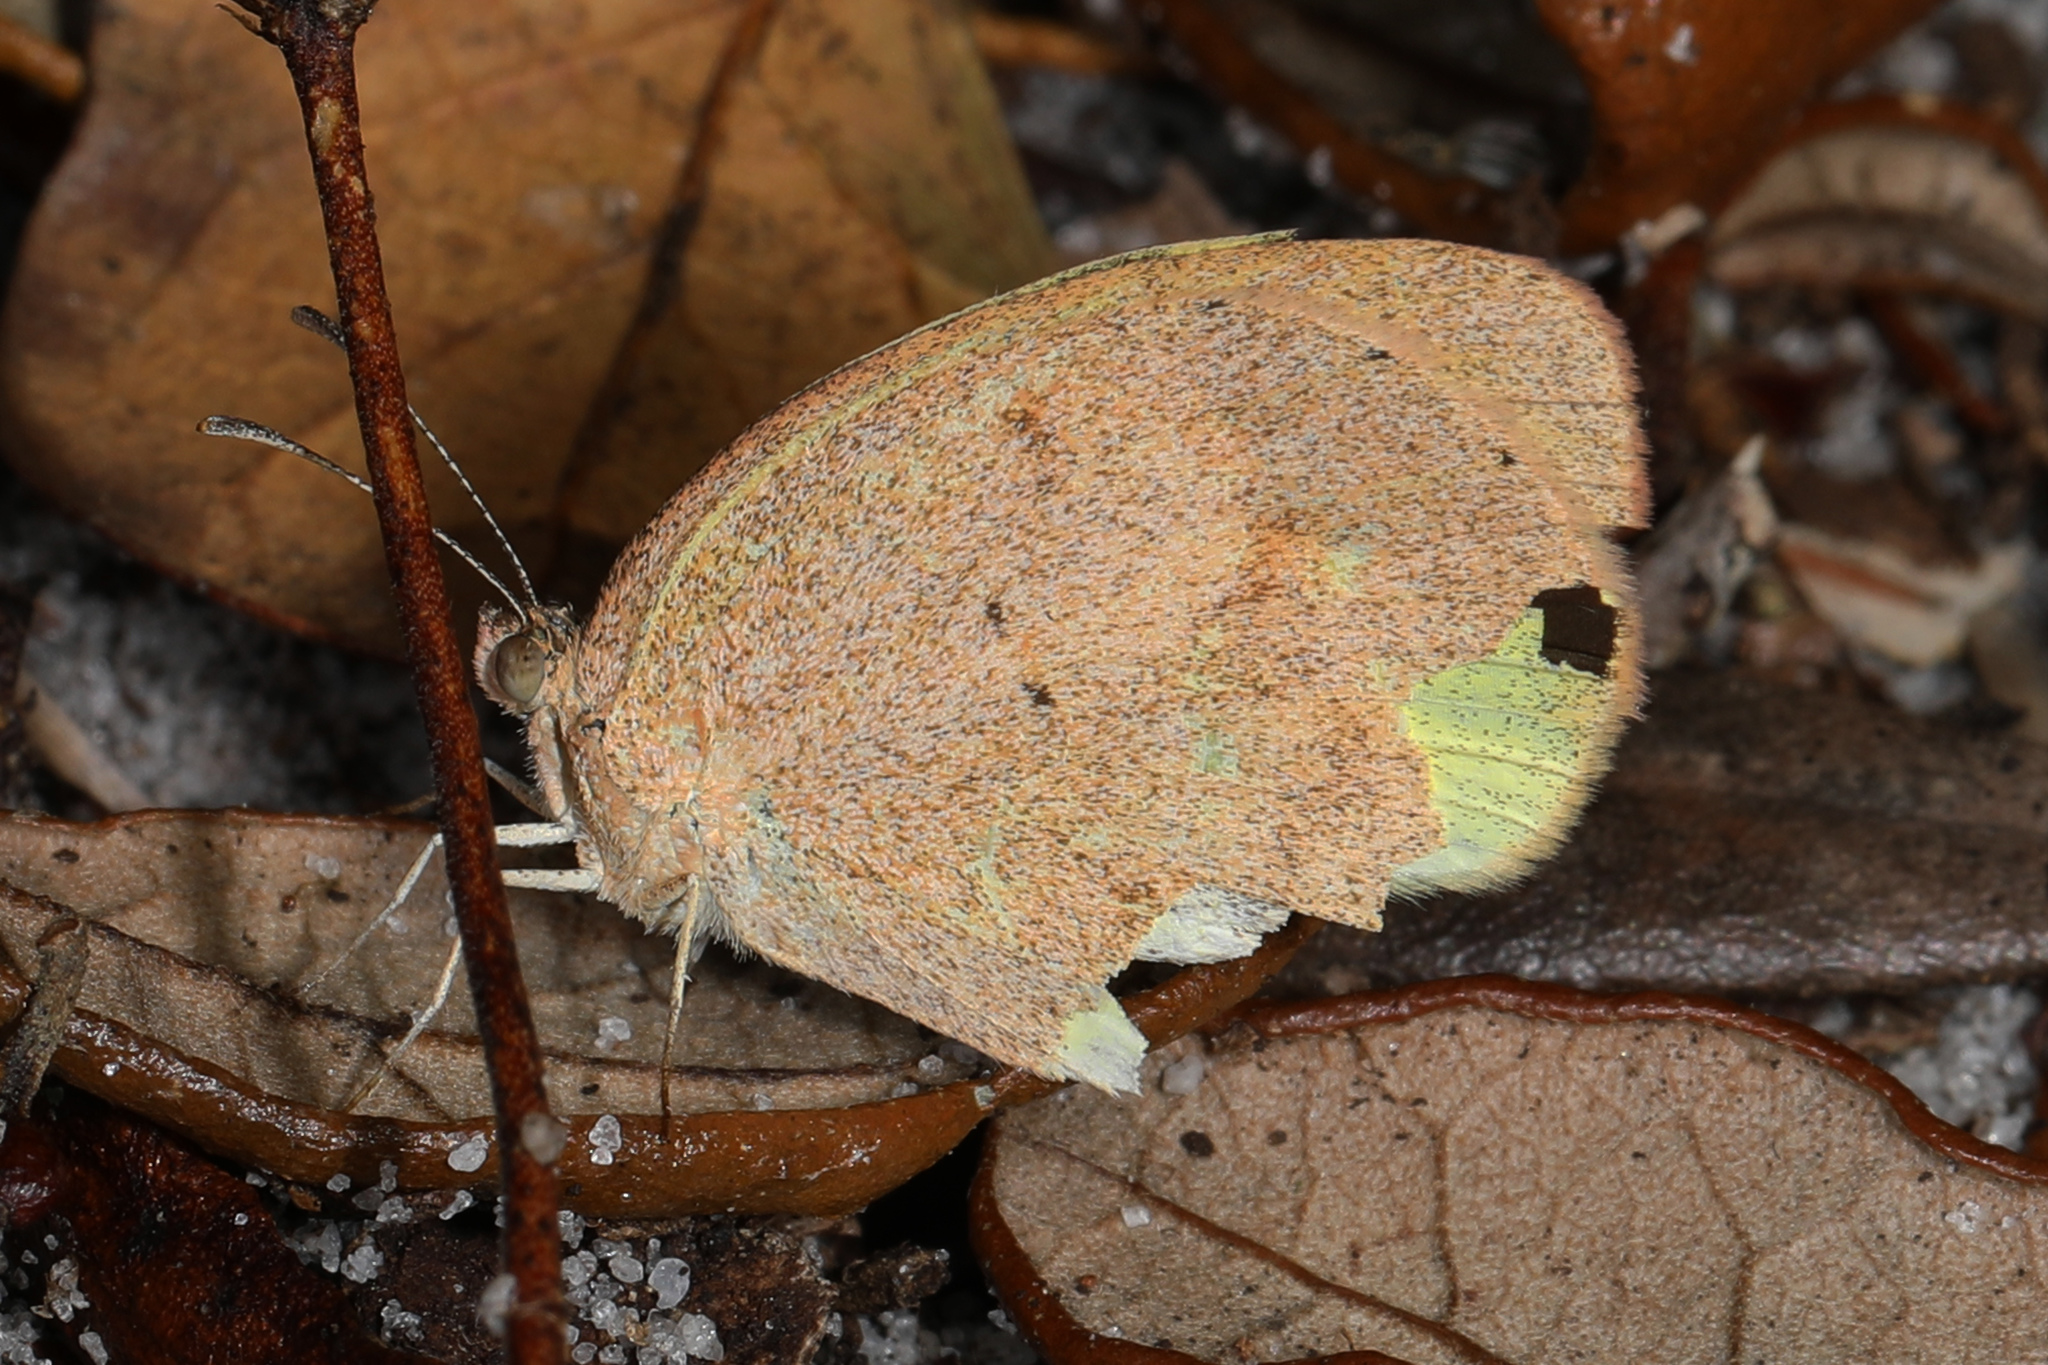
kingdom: Animalia
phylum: Arthropoda
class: Insecta
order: Lepidoptera
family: Pieridae
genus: Eurema
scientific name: Eurema daira
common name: Barred sulphur
